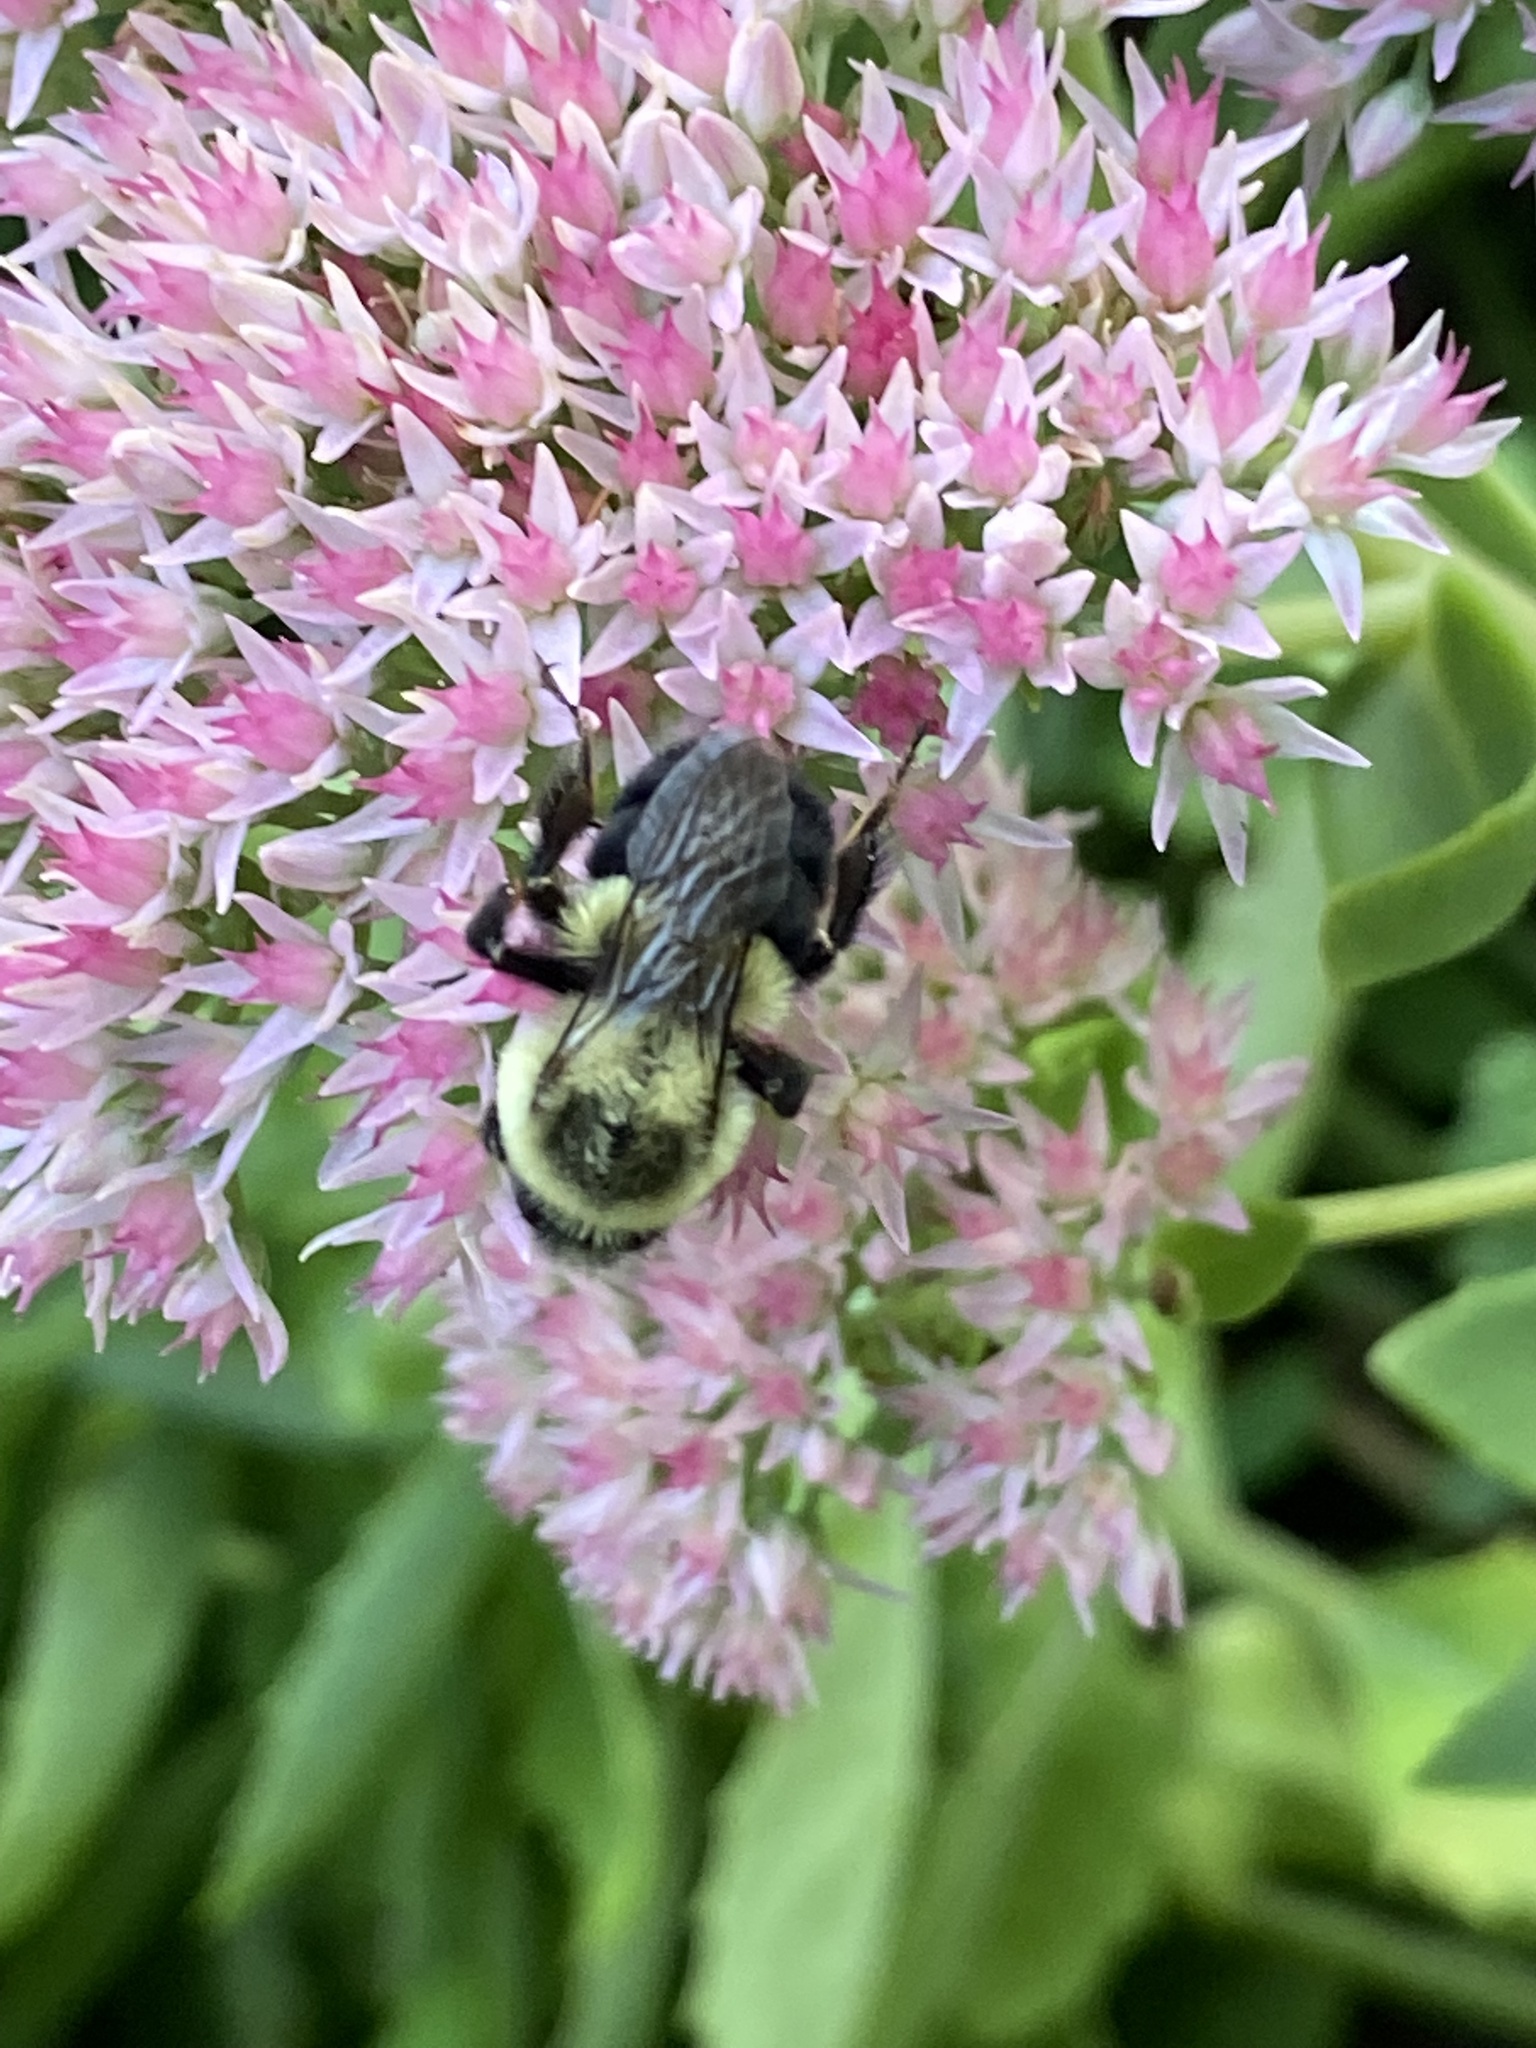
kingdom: Animalia
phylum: Arthropoda
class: Insecta
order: Hymenoptera
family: Apidae
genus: Bombus
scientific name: Bombus impatiens
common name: Common eastern bumble bee
